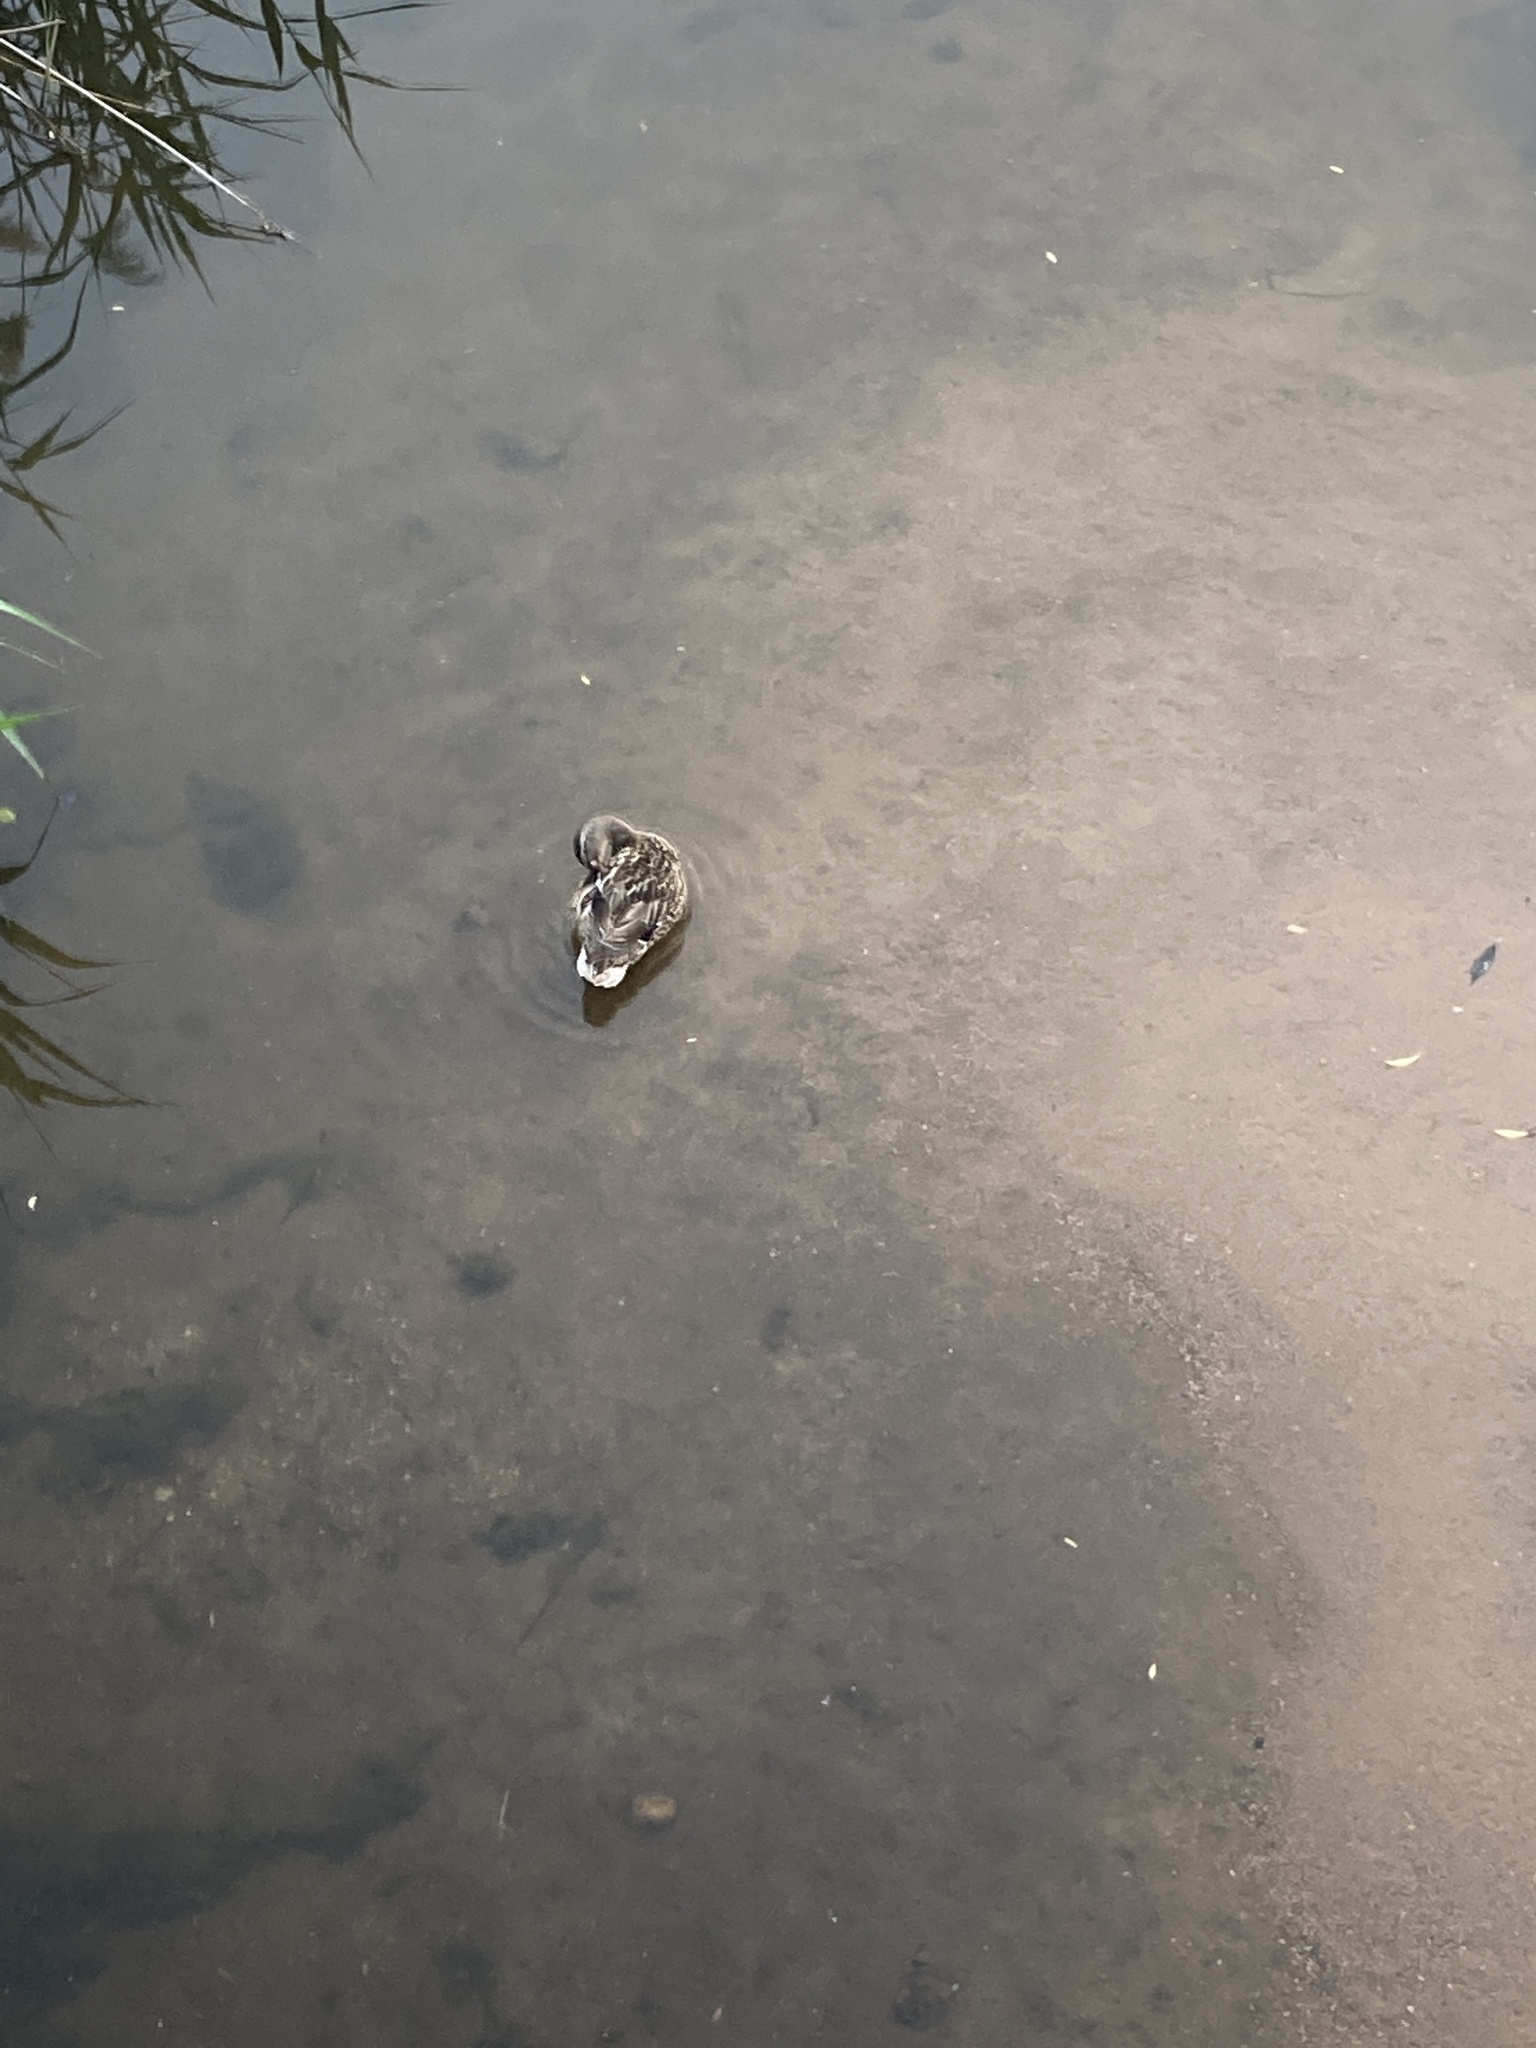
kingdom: Animalia
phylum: Chordata
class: Aves
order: Anseriformes
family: Anatidae
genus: Anas
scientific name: Anas platyrhynchos
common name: Mallard
